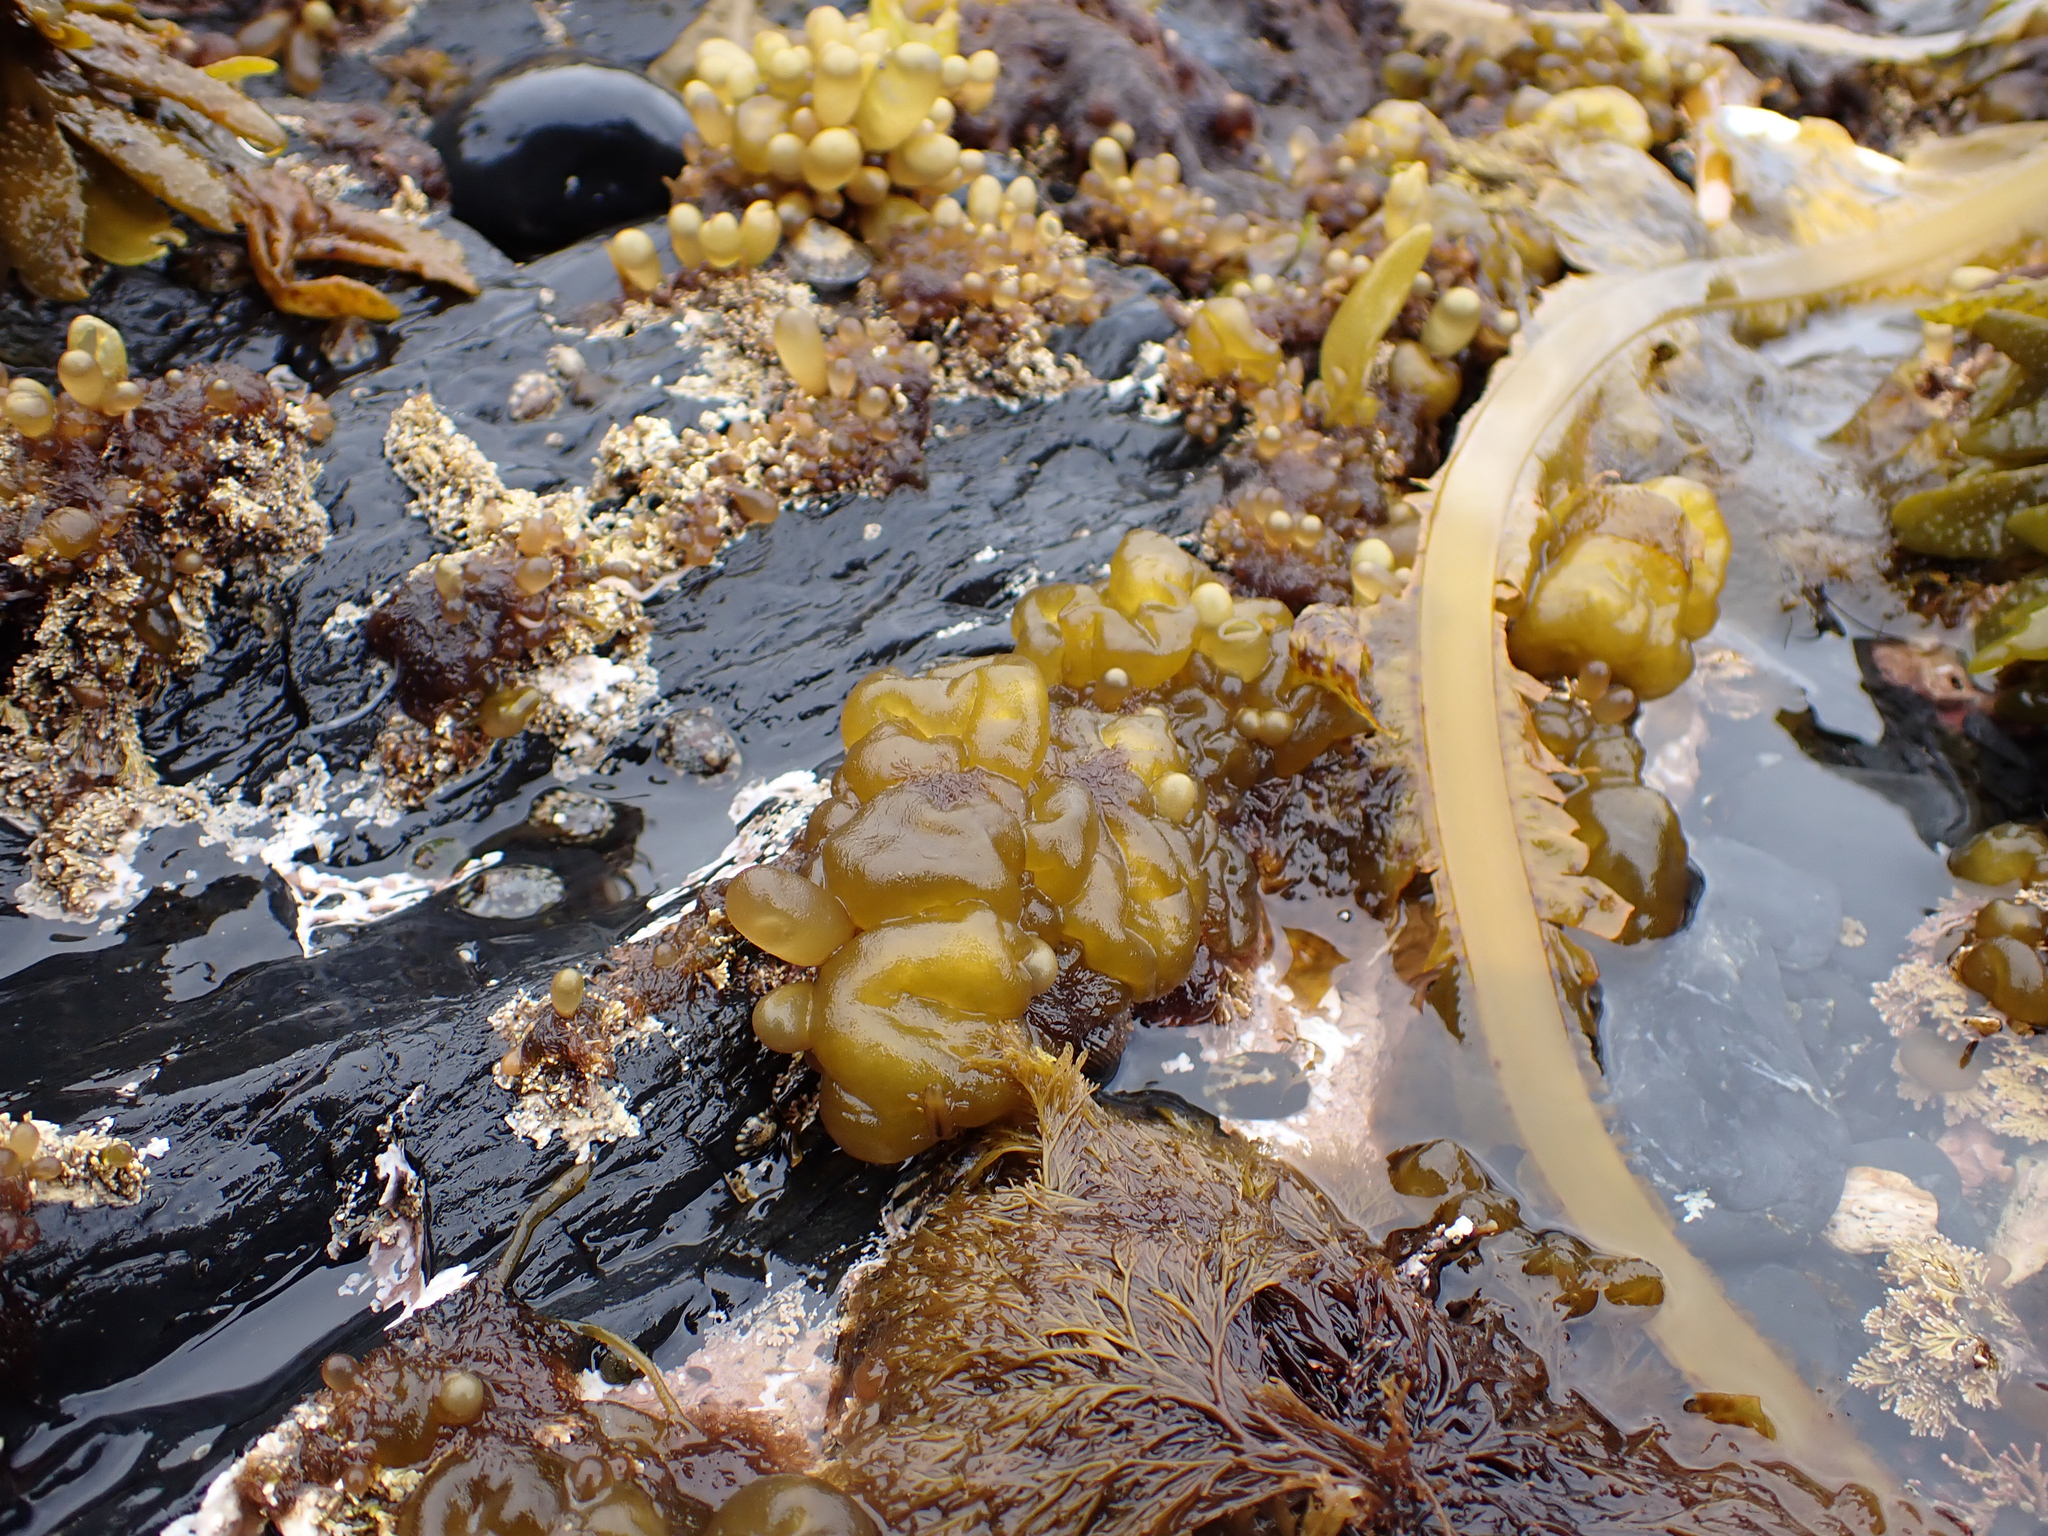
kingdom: Chromista
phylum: Ochrophyta
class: Phaeophyceae
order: Ectocarpales
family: Chordariaceae
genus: Leathesia
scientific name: Leathesia marina
